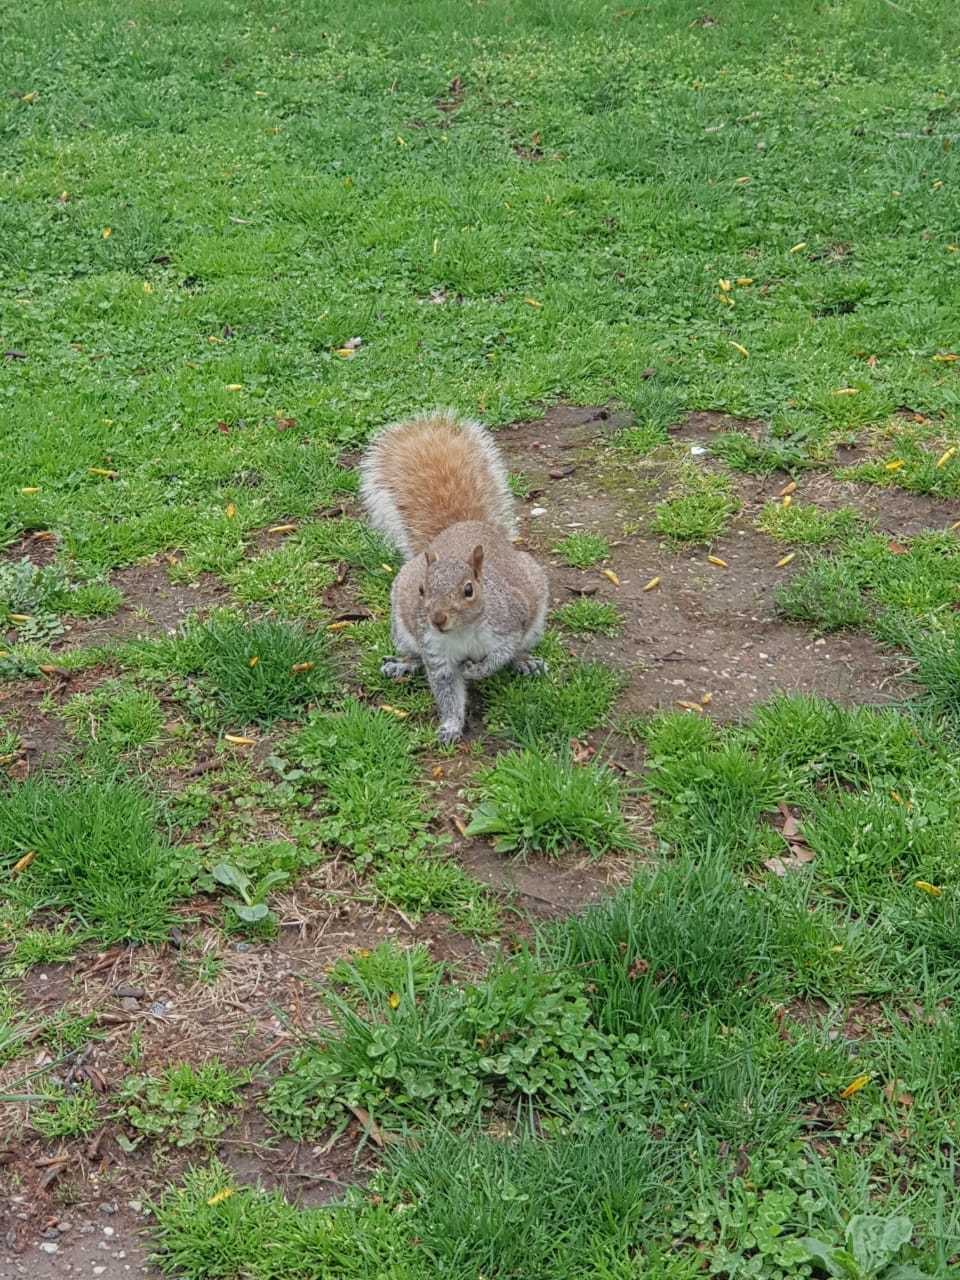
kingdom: Animalia
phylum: Chordata
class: Mammalia
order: Rodentia
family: Sciuridae
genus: Sciurus
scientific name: Sciurus carolinensis
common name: Eastern gray squirrel
